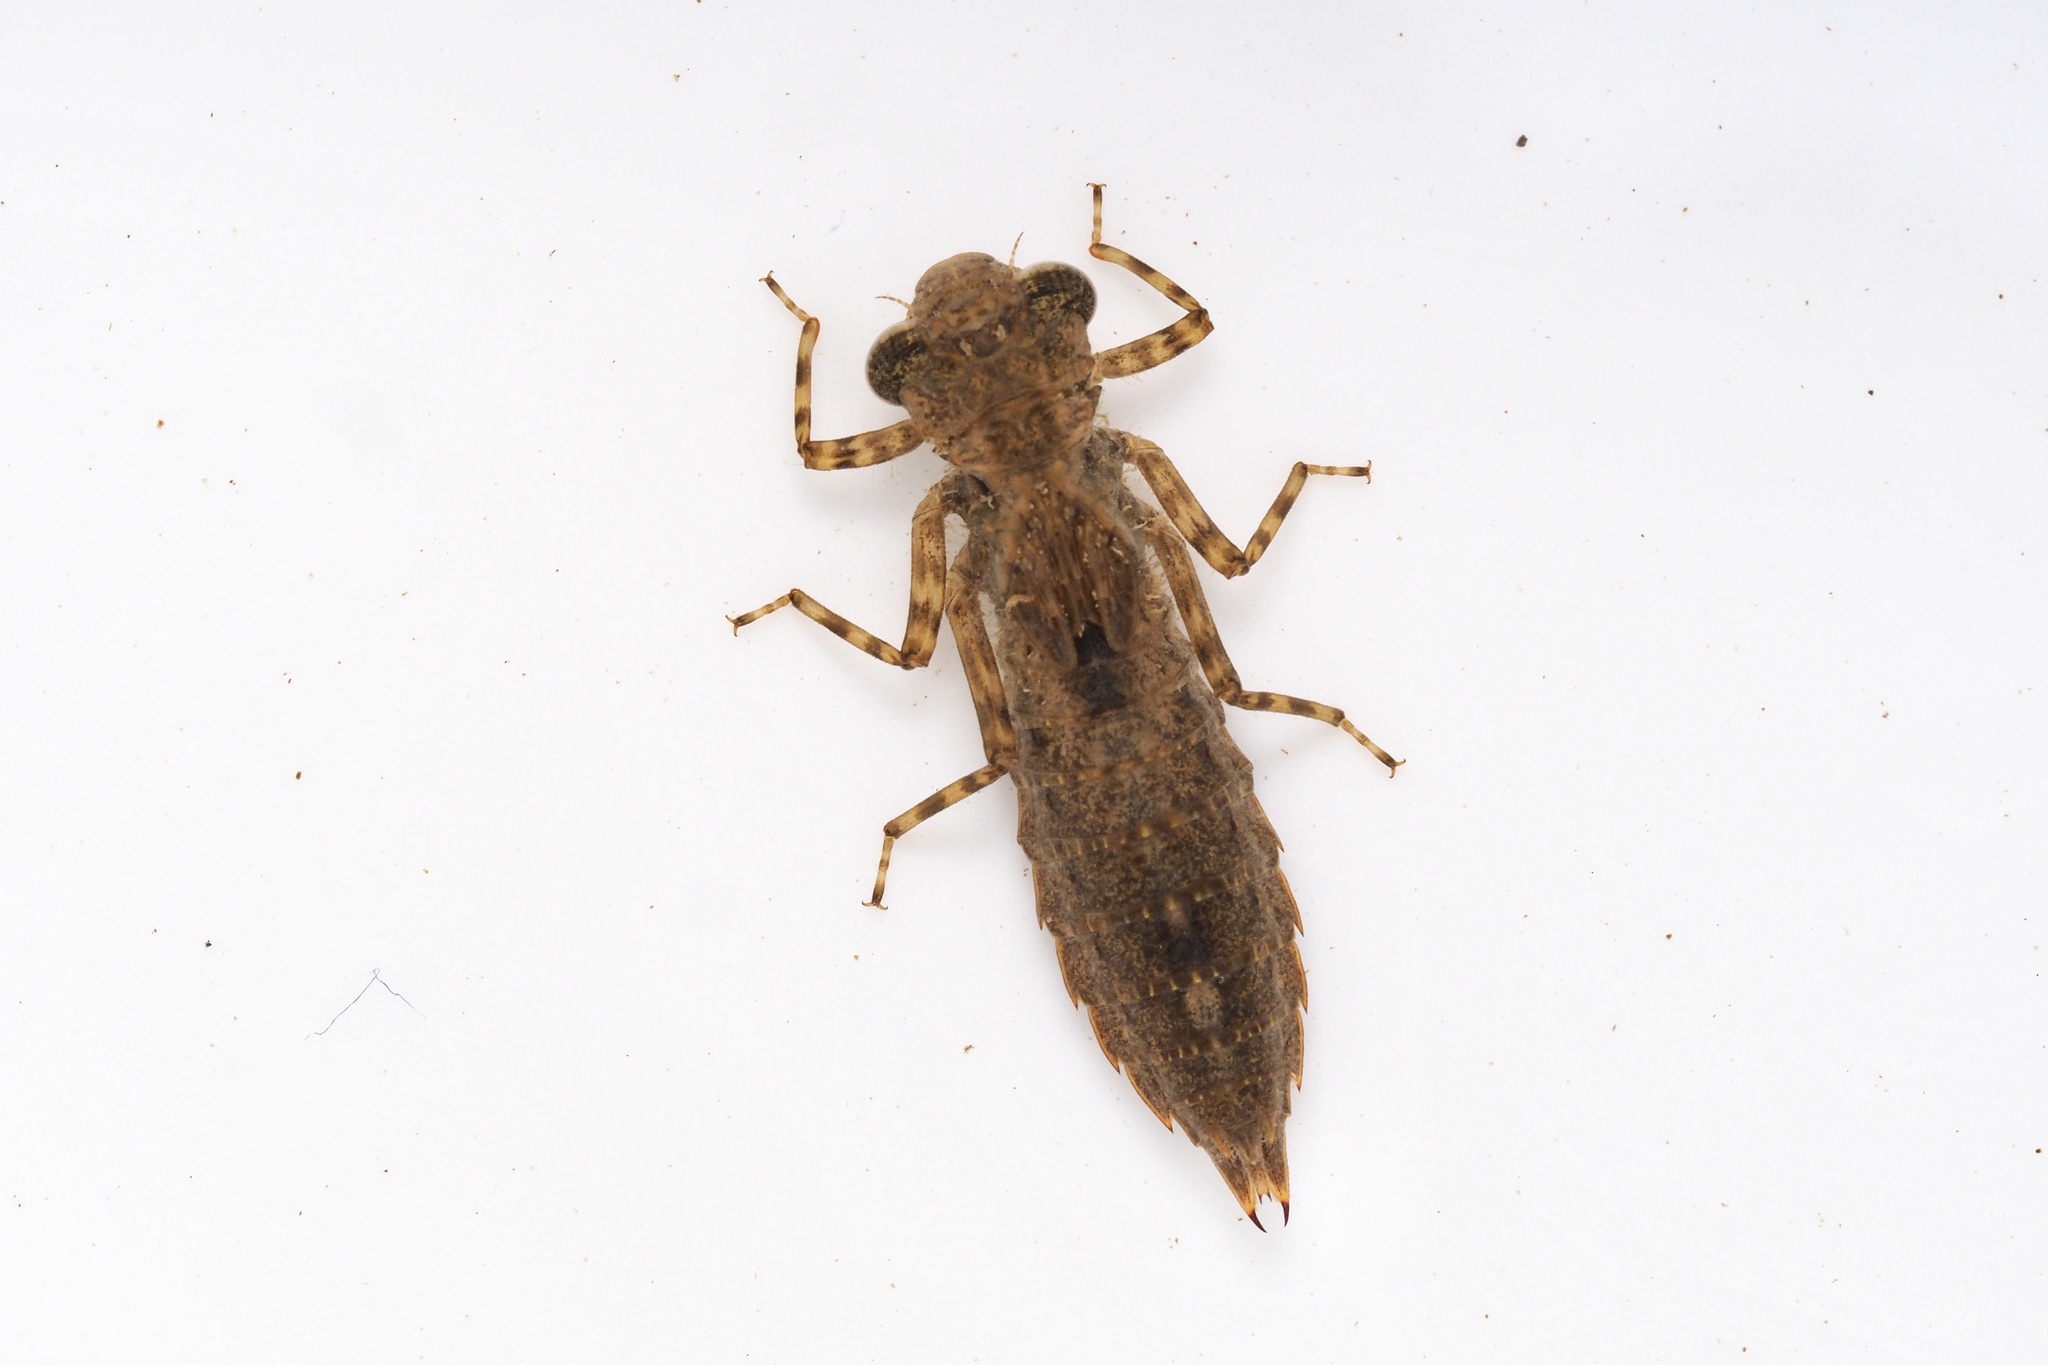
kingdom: Animalia
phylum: Arthropoda
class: Insecta
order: Odonata
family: Aeshnidae
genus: Aeschnophlebia
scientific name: Aeschnophlebia
